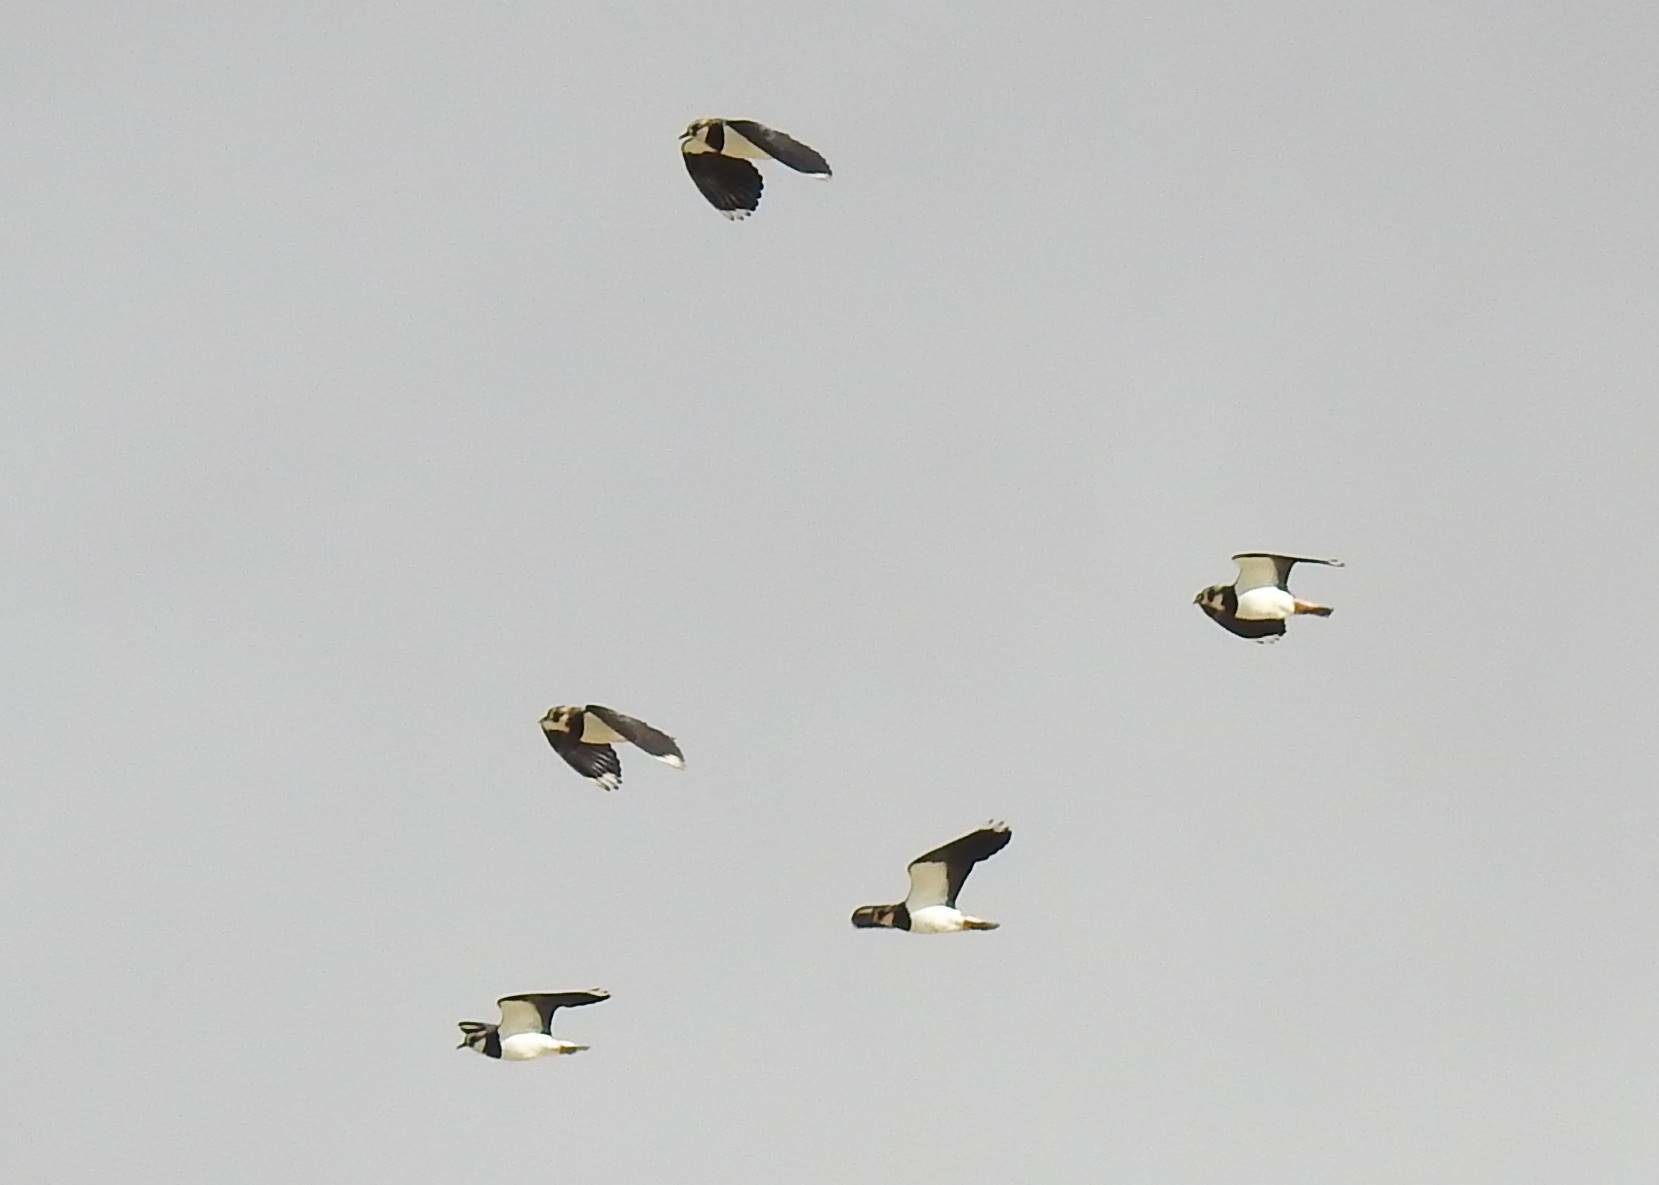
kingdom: Animalia
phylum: Chordata
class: Aves
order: Charadriiformes
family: Charadriidae
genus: Vanellus
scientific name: Vanellus vanellus
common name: Northern lapwing
